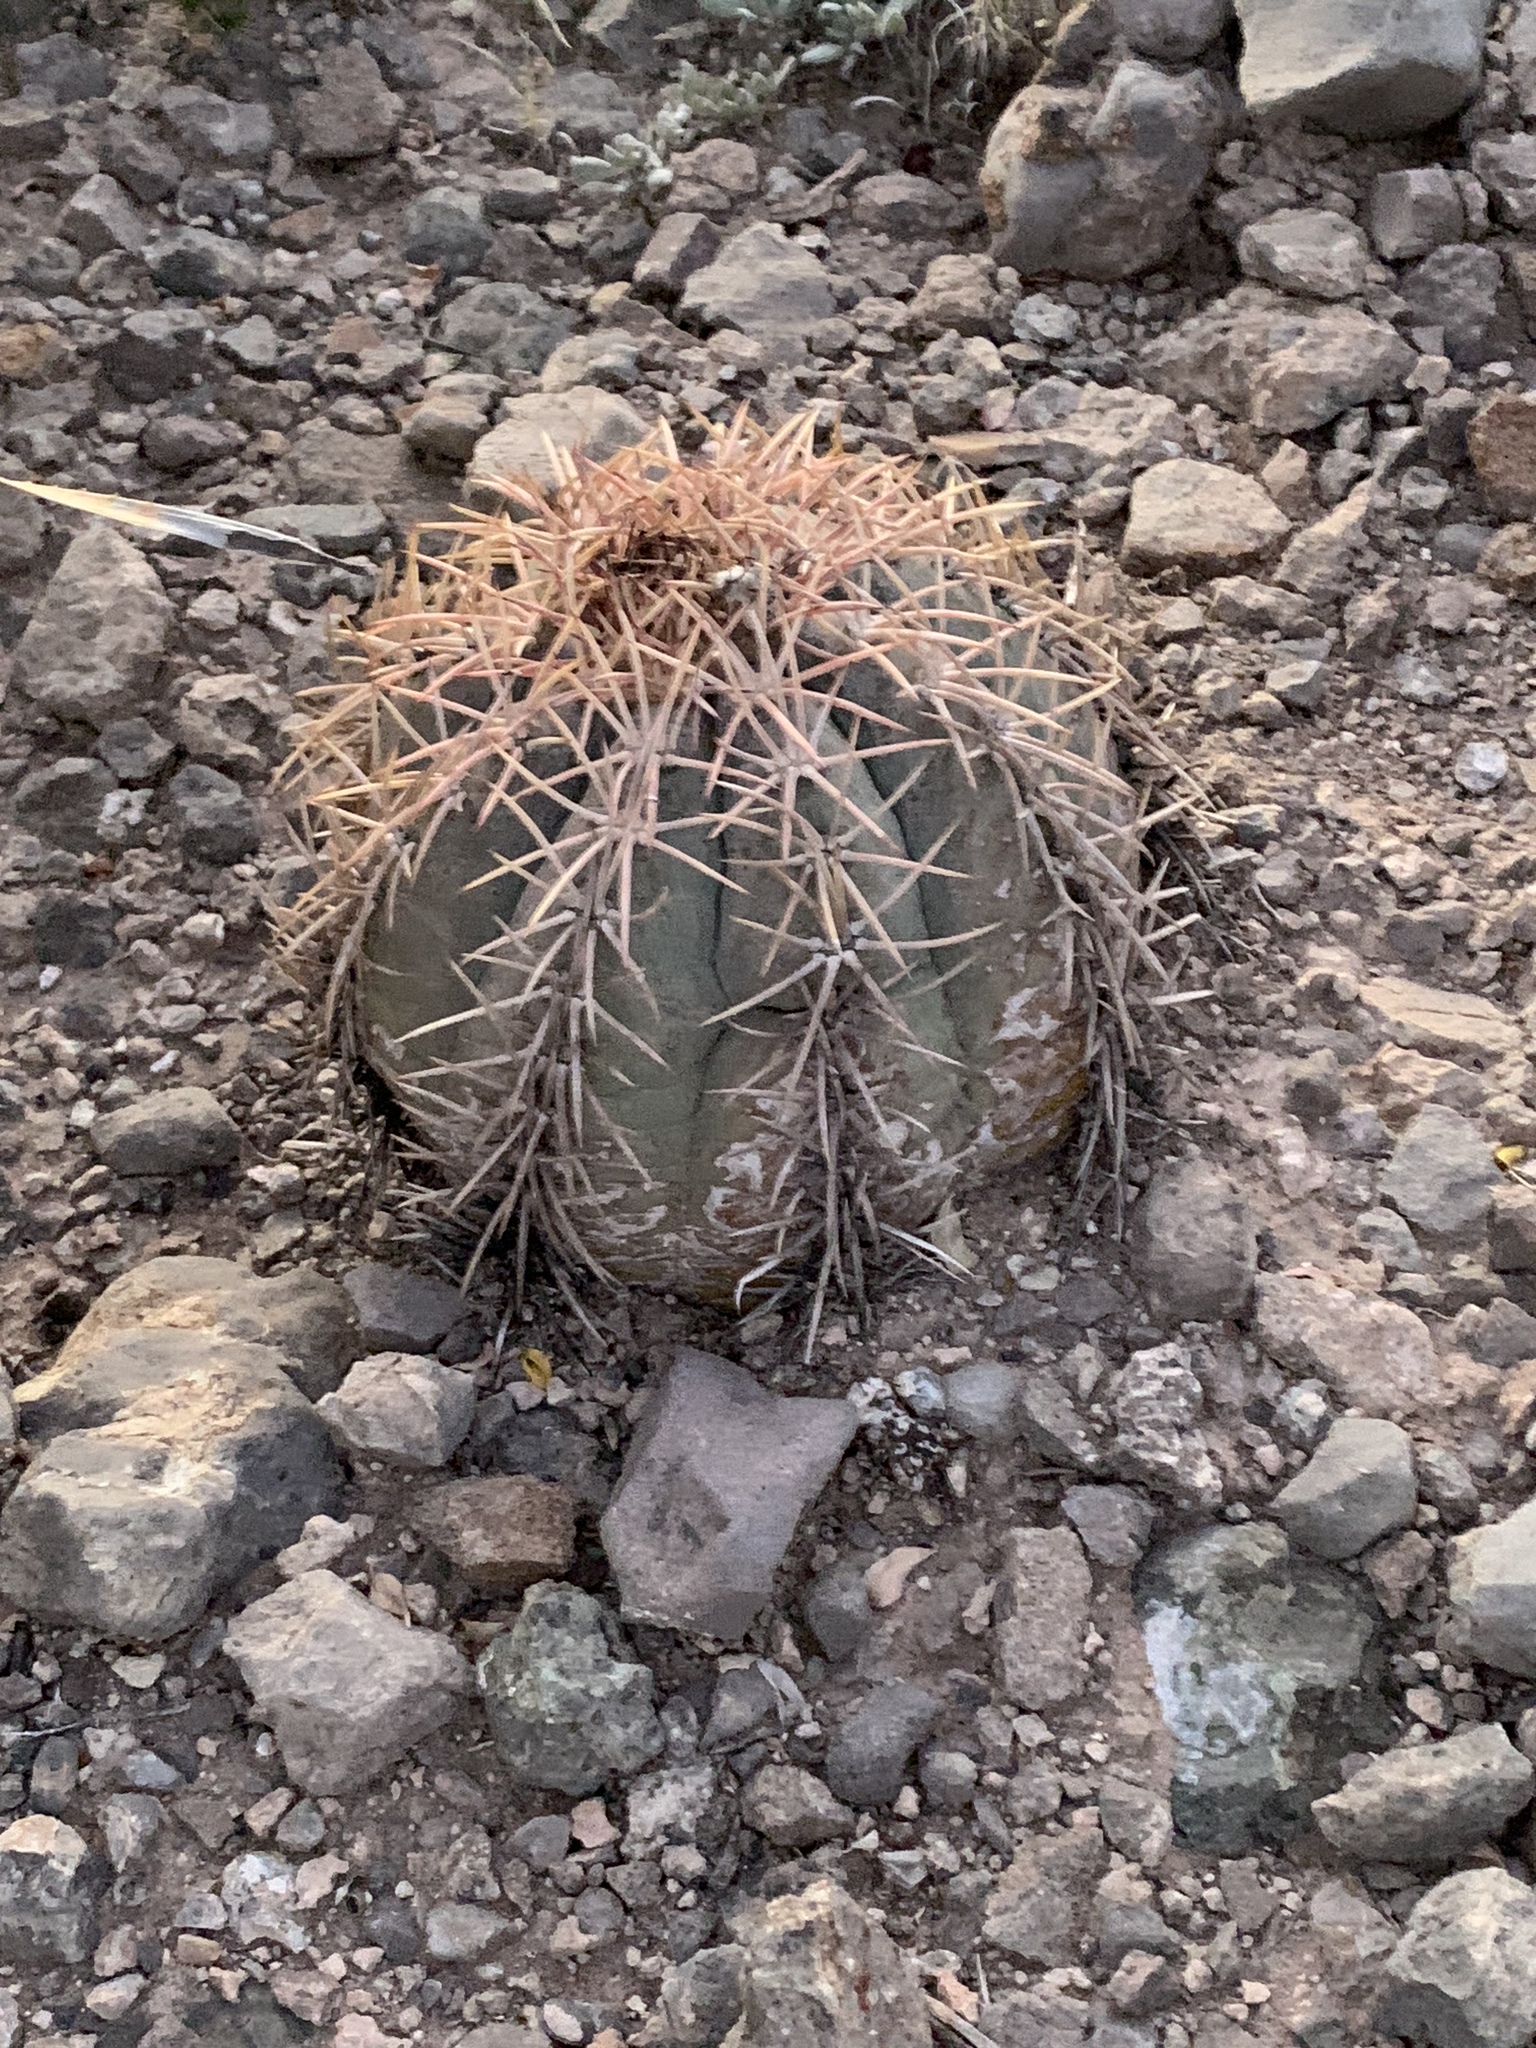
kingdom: Plantae
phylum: Tracheophyta
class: Magnoliopsida
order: Caryophyllales
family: Cactaceae
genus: Echinocactus
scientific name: Echinocactus horizonthalonius
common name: Devilshead
